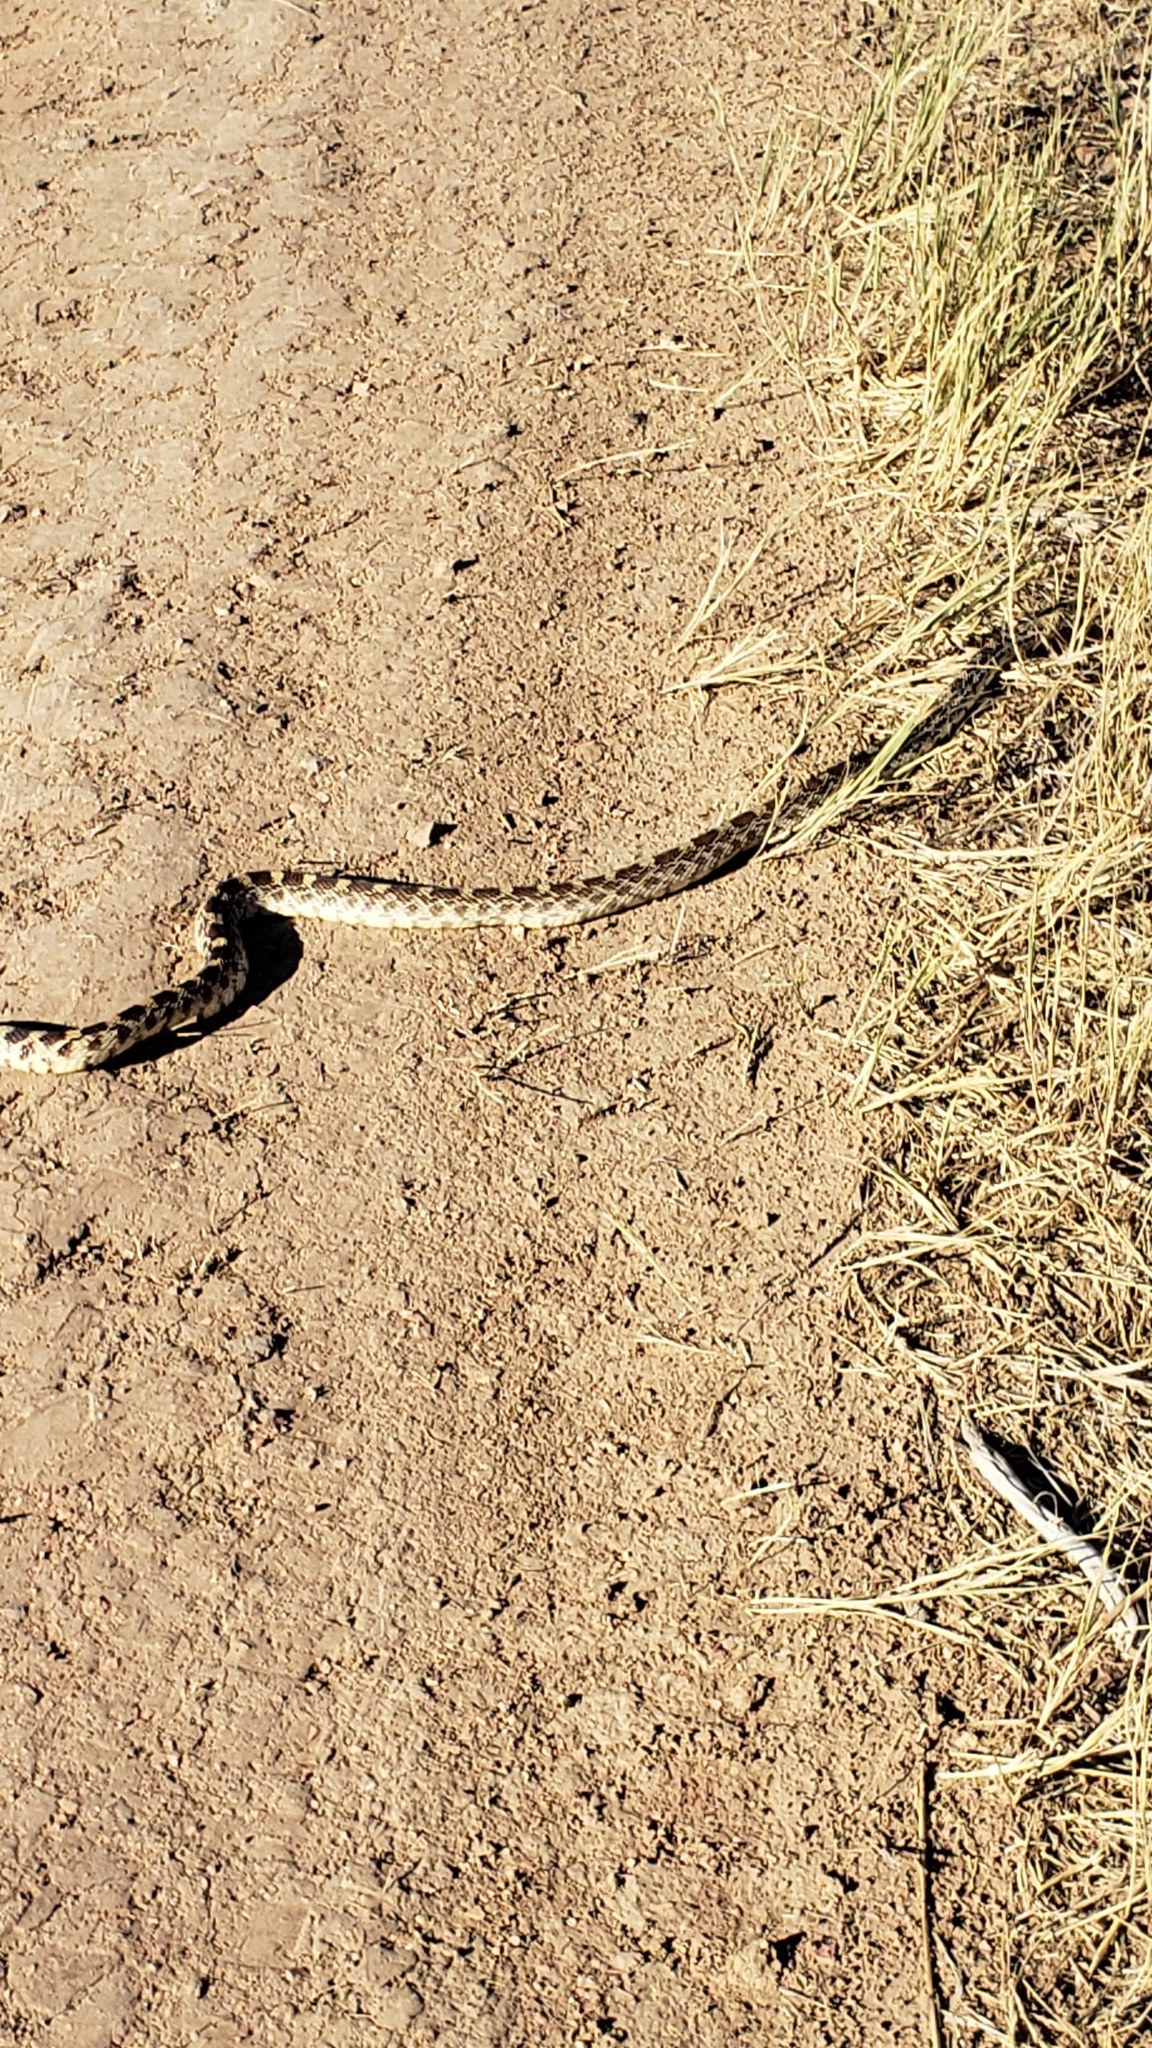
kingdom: Animalia
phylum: Chordata
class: Squamata
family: Colubridae
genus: Pituophis
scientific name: Pituophis catenifer
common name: Gopher snake
